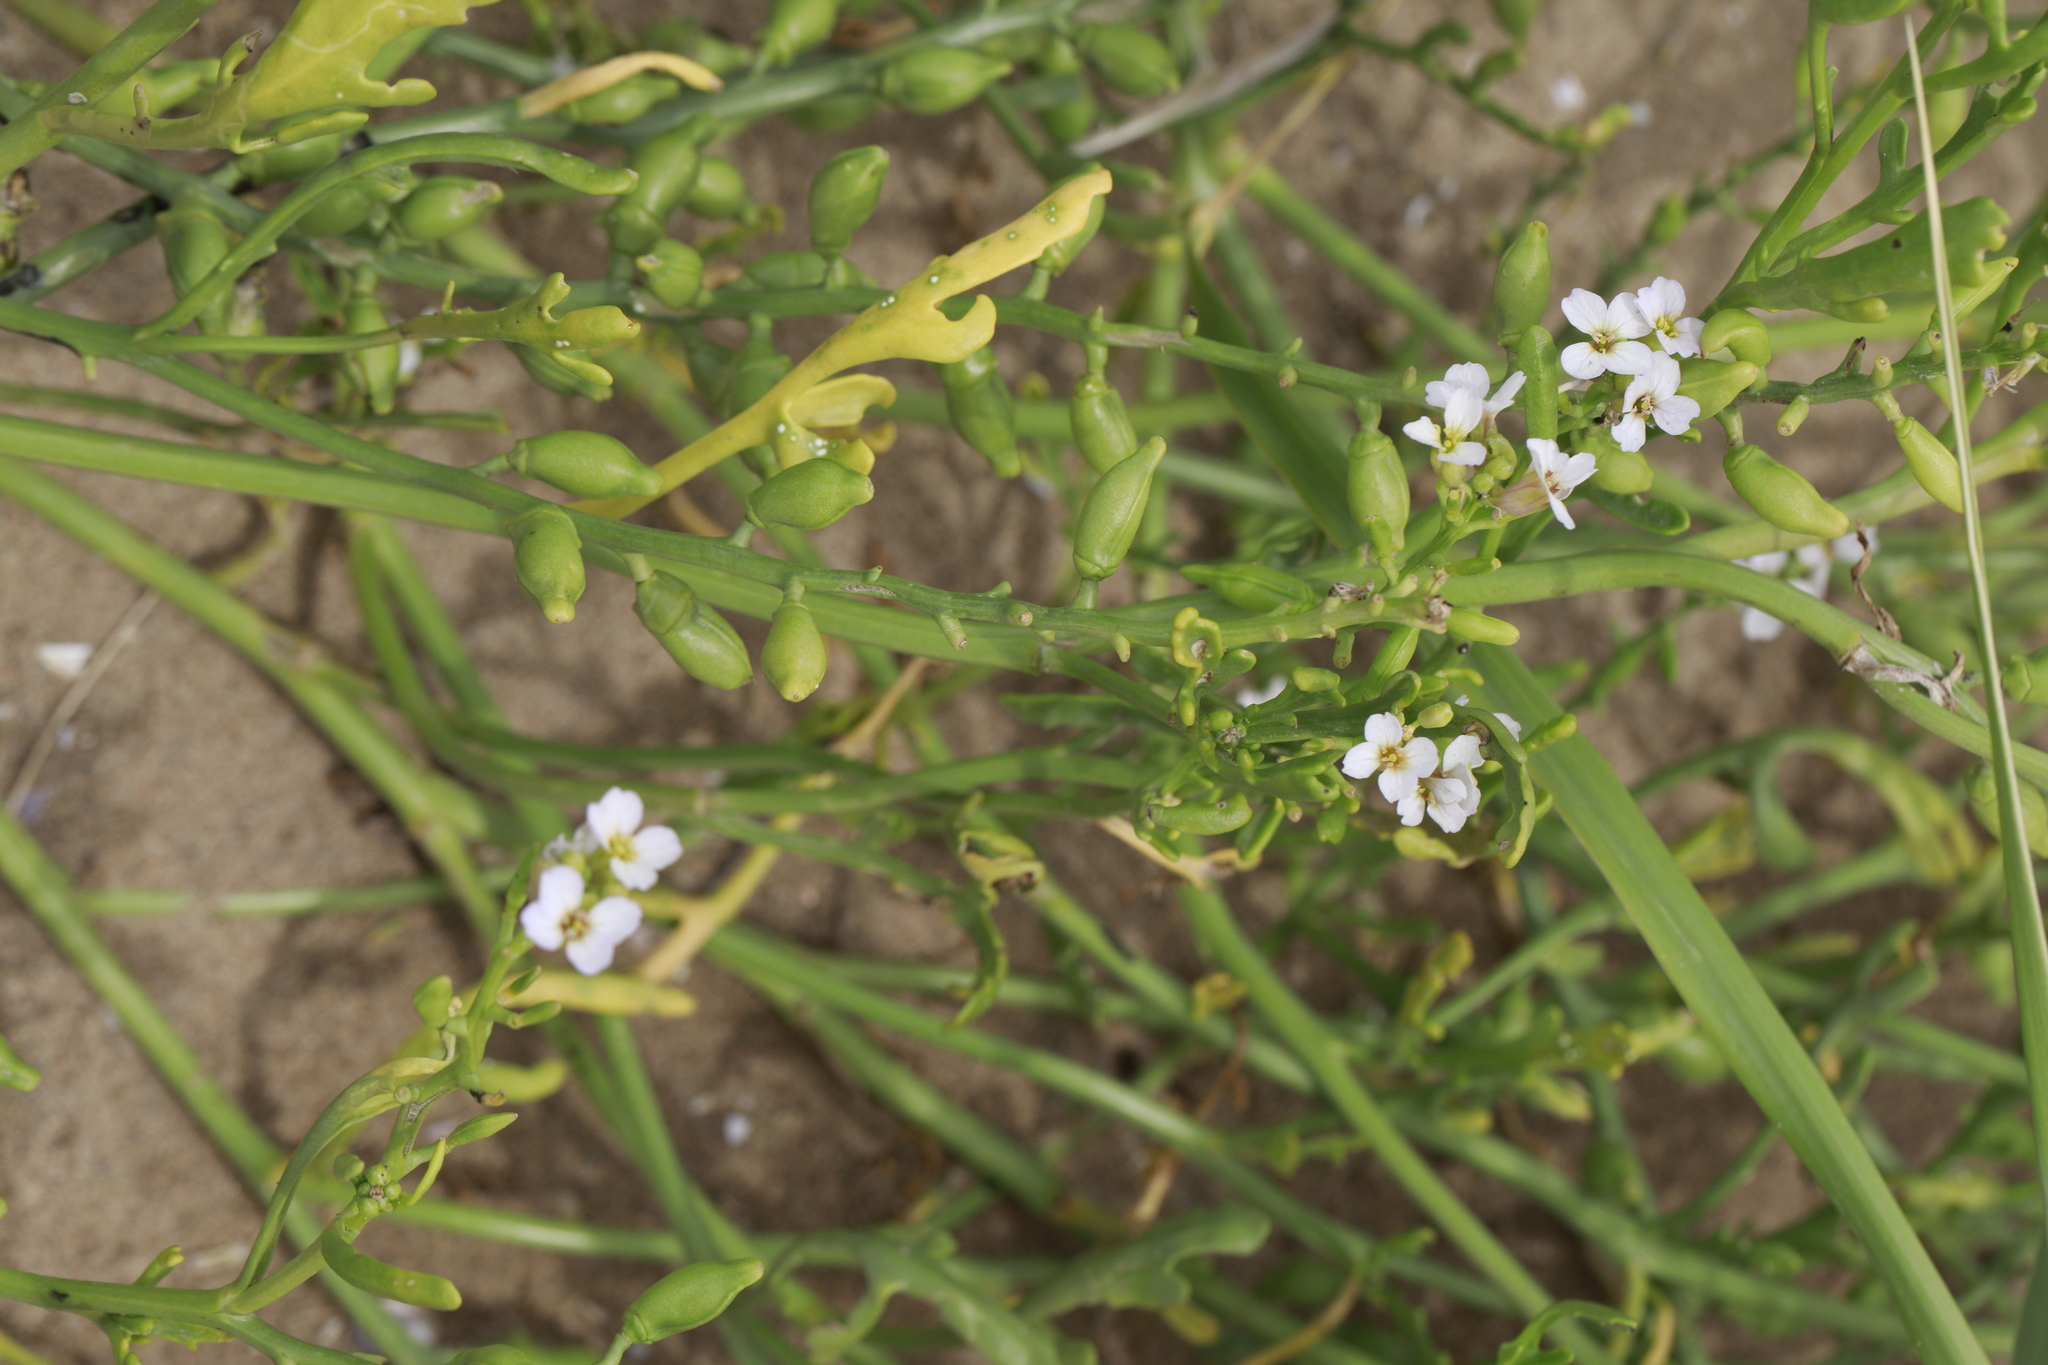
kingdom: Plantae
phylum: Tracheophyta
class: Magnoliopsida
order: Brassicales
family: Brassicaceae
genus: Cakile
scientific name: Cakile maritima
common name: Sea rocket
